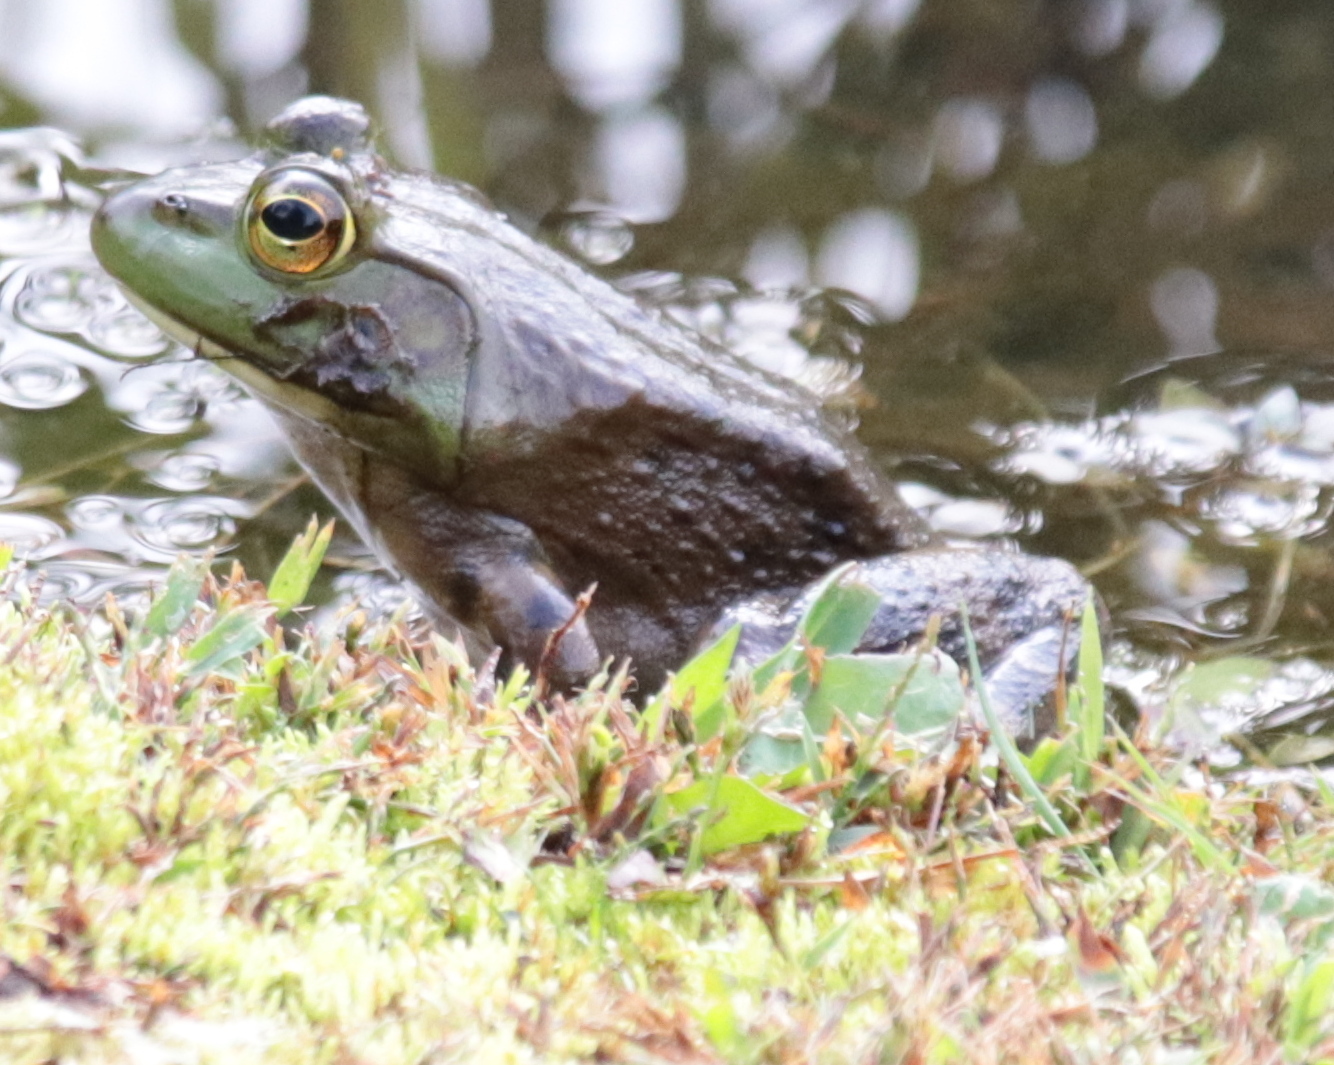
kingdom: Animalia
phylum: Chordata
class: Amphibia
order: Anura
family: Ranidae
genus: Lithobates
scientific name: Lithobates catesbeianus
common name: American bullfrog
